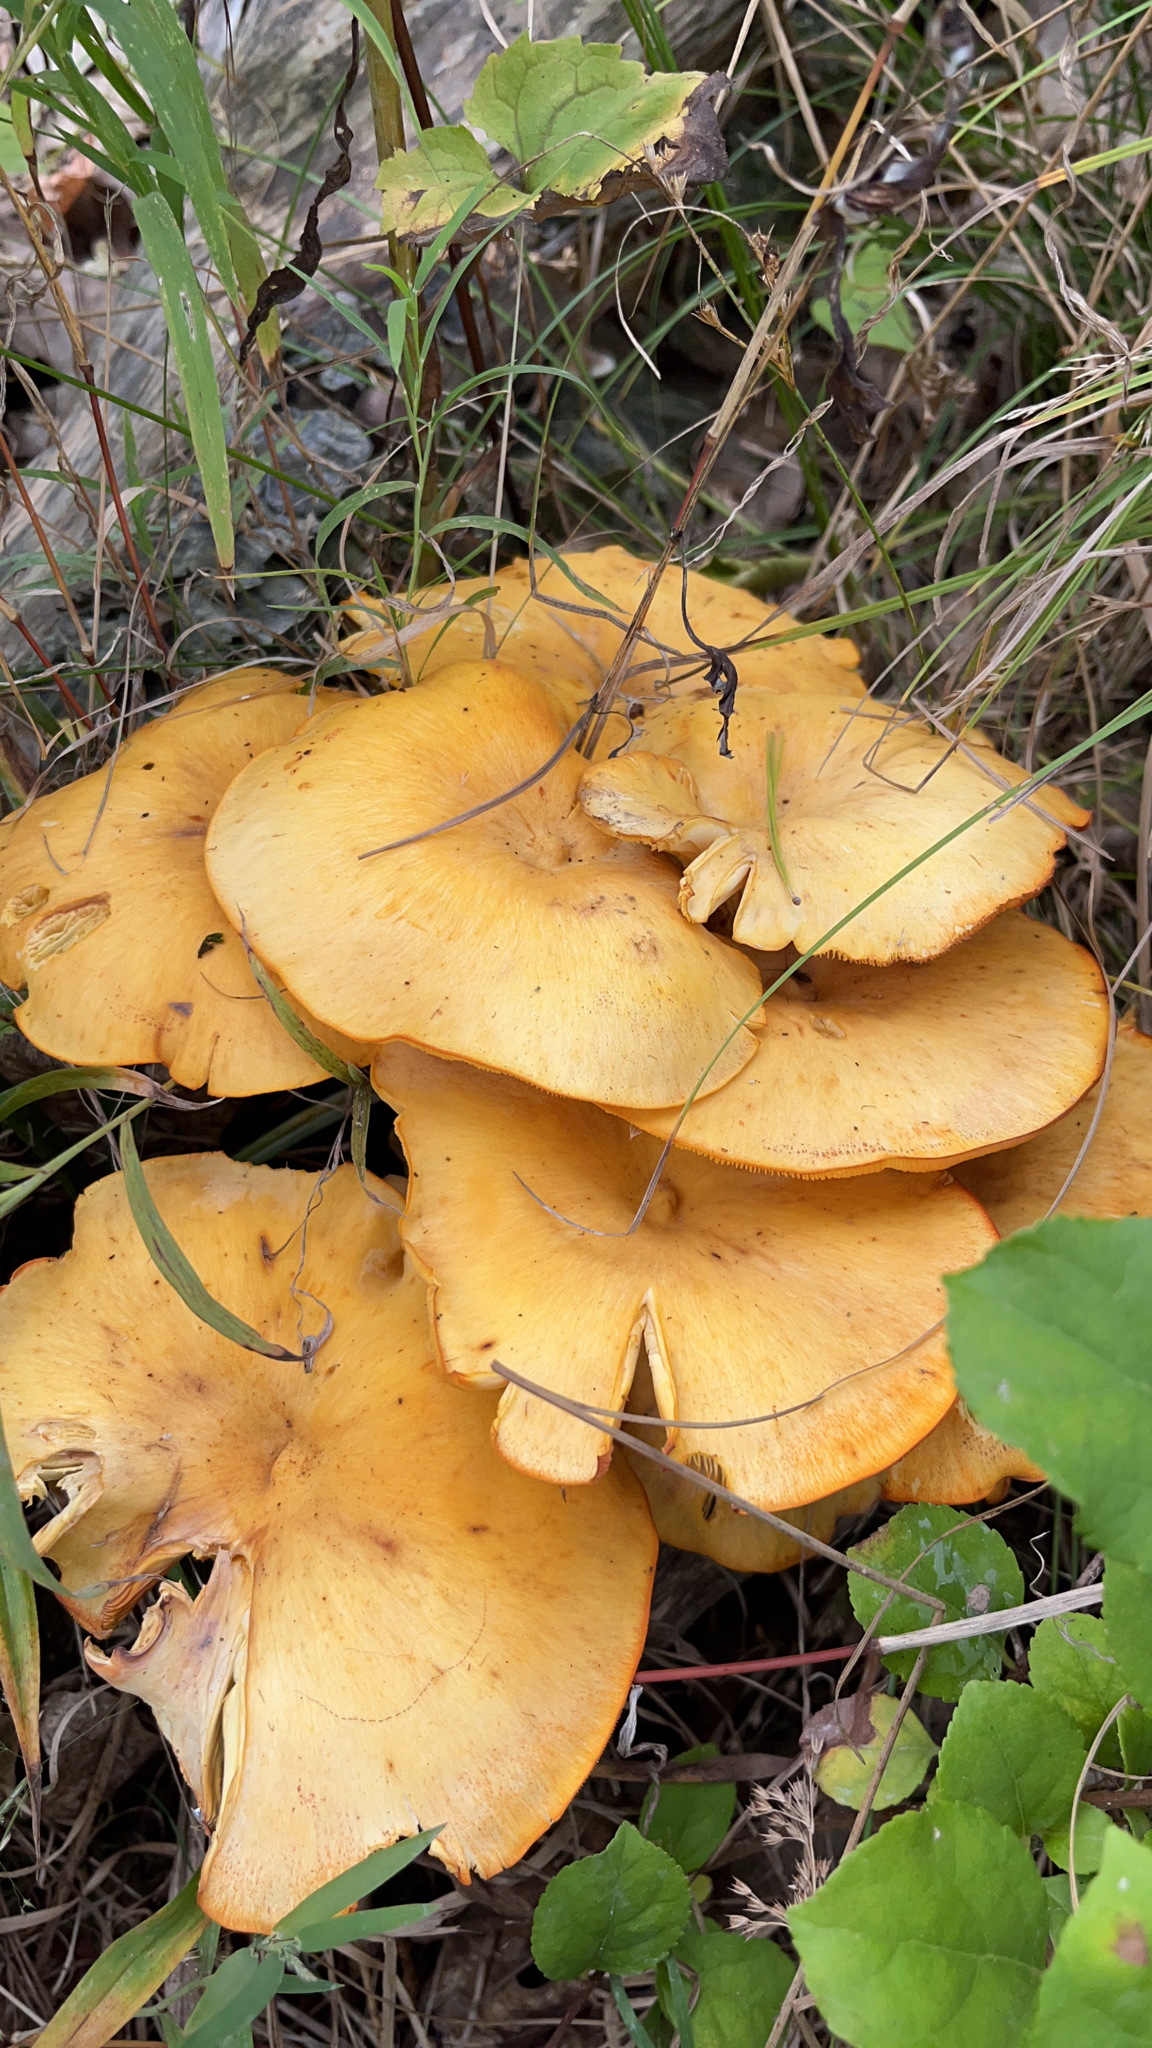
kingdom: Fungi
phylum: Basidiomycota
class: Agaricomycetes
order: Agaricales
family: Omphalotaceae
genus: Omphalotus
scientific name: Omphalotus illudens
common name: Jack o lantern
